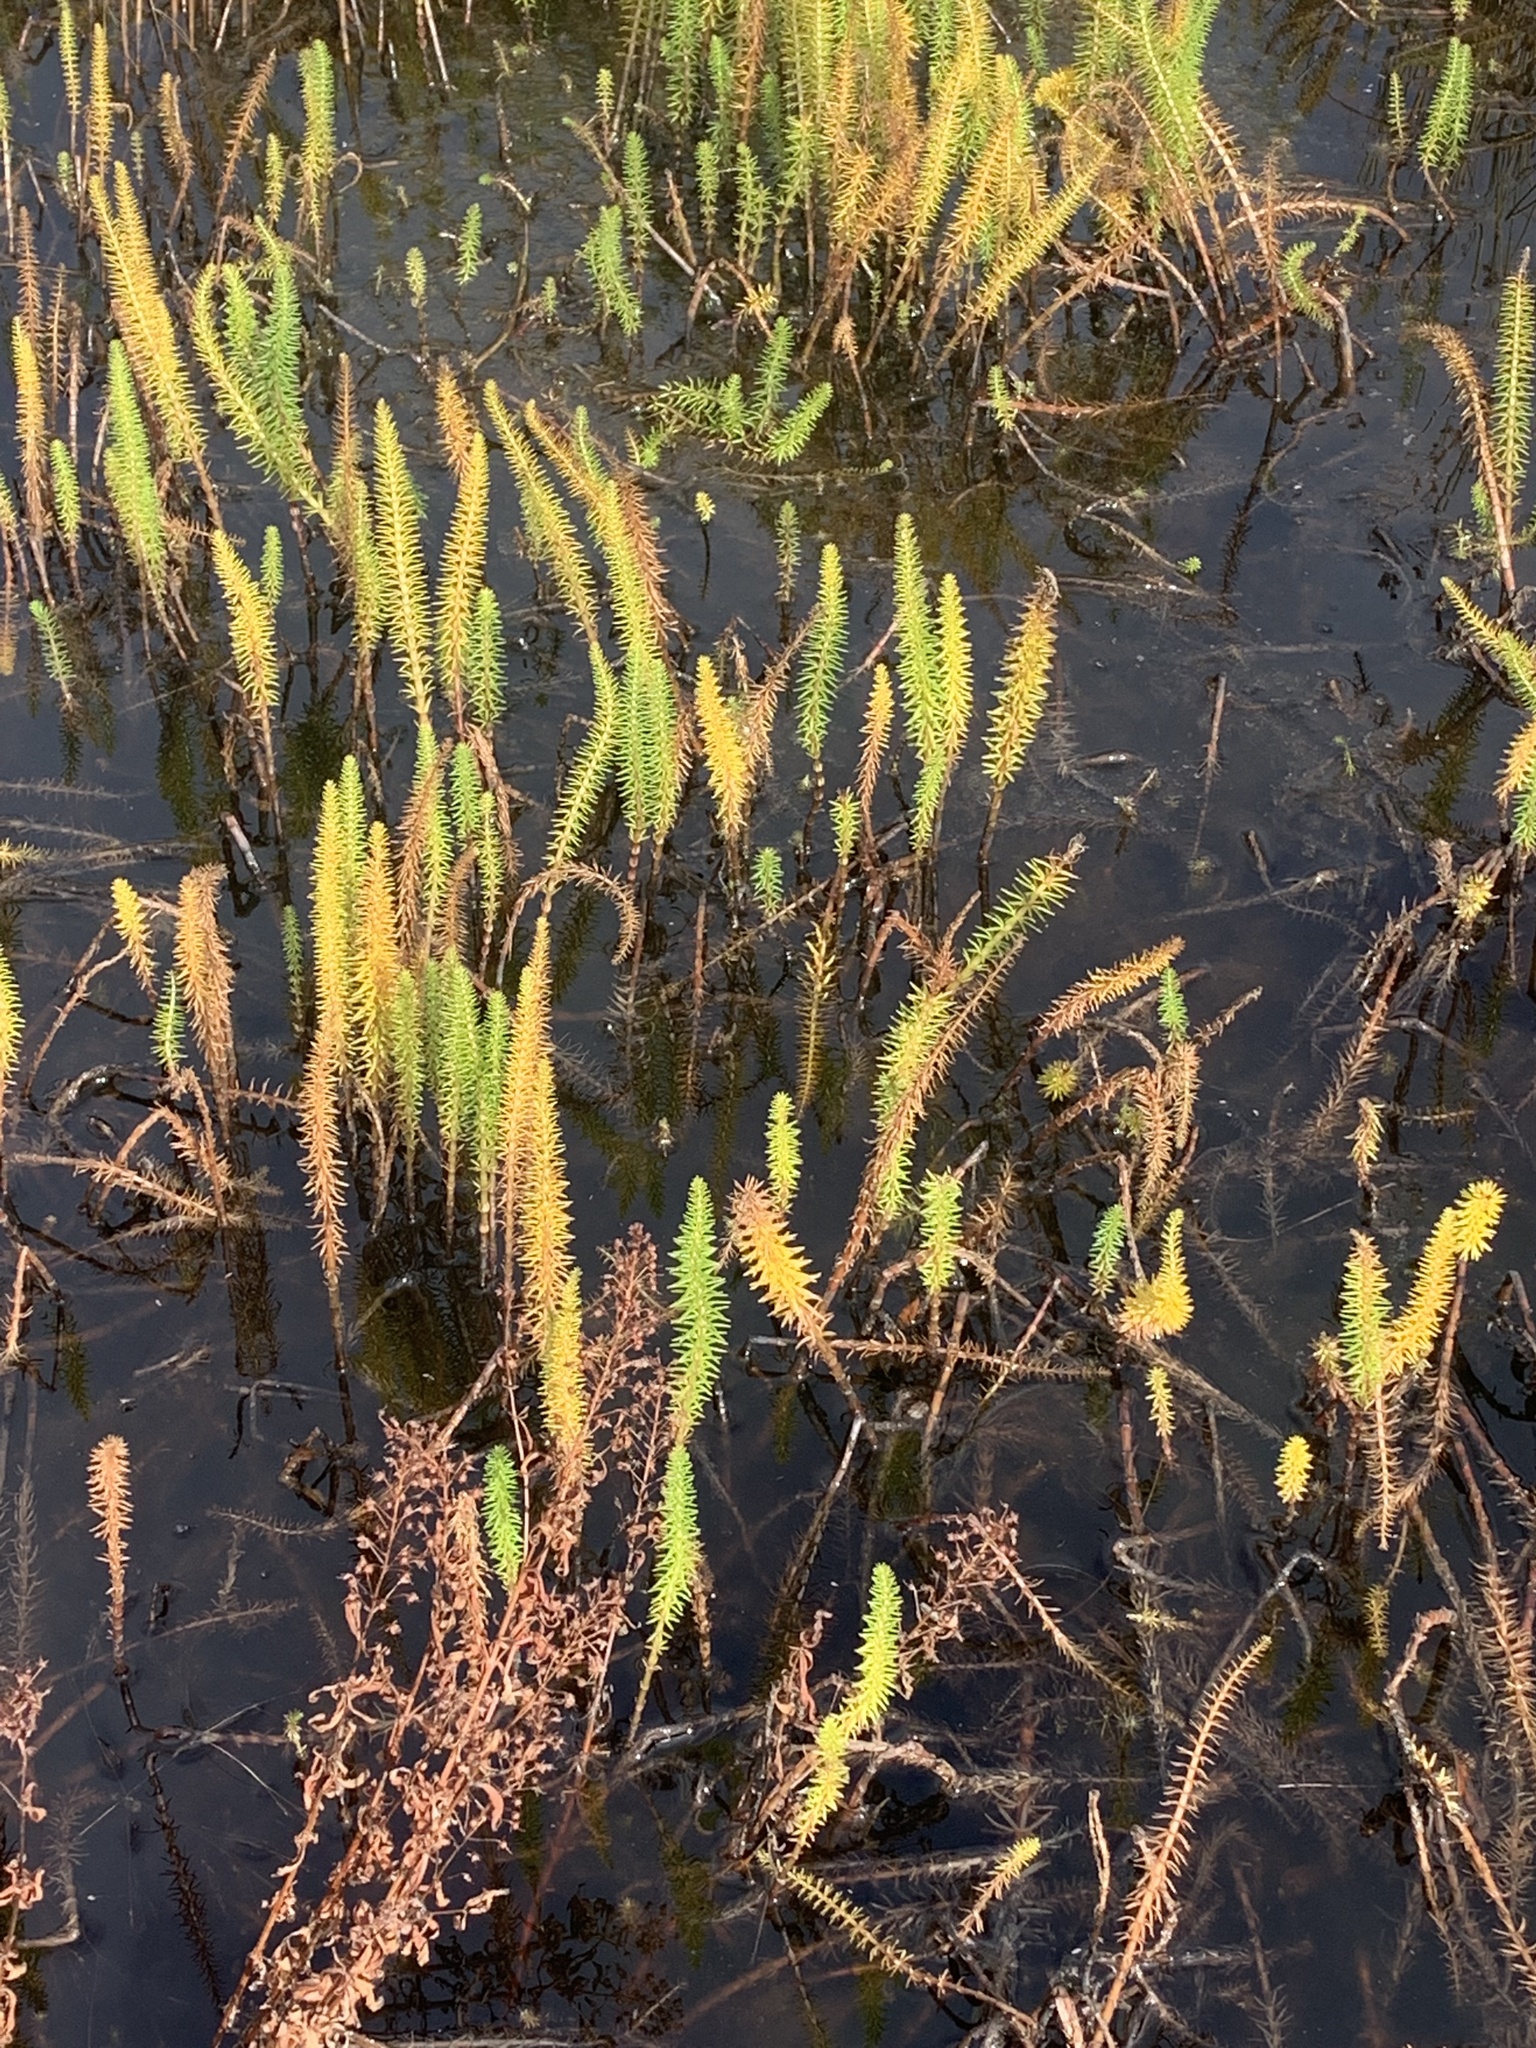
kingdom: Plantae
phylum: Tracheophyta
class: Magnoliopsida
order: Lamiales
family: Plantaginaceae
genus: Hippuris
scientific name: Hippuris vulgaris
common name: Mare's-tail
